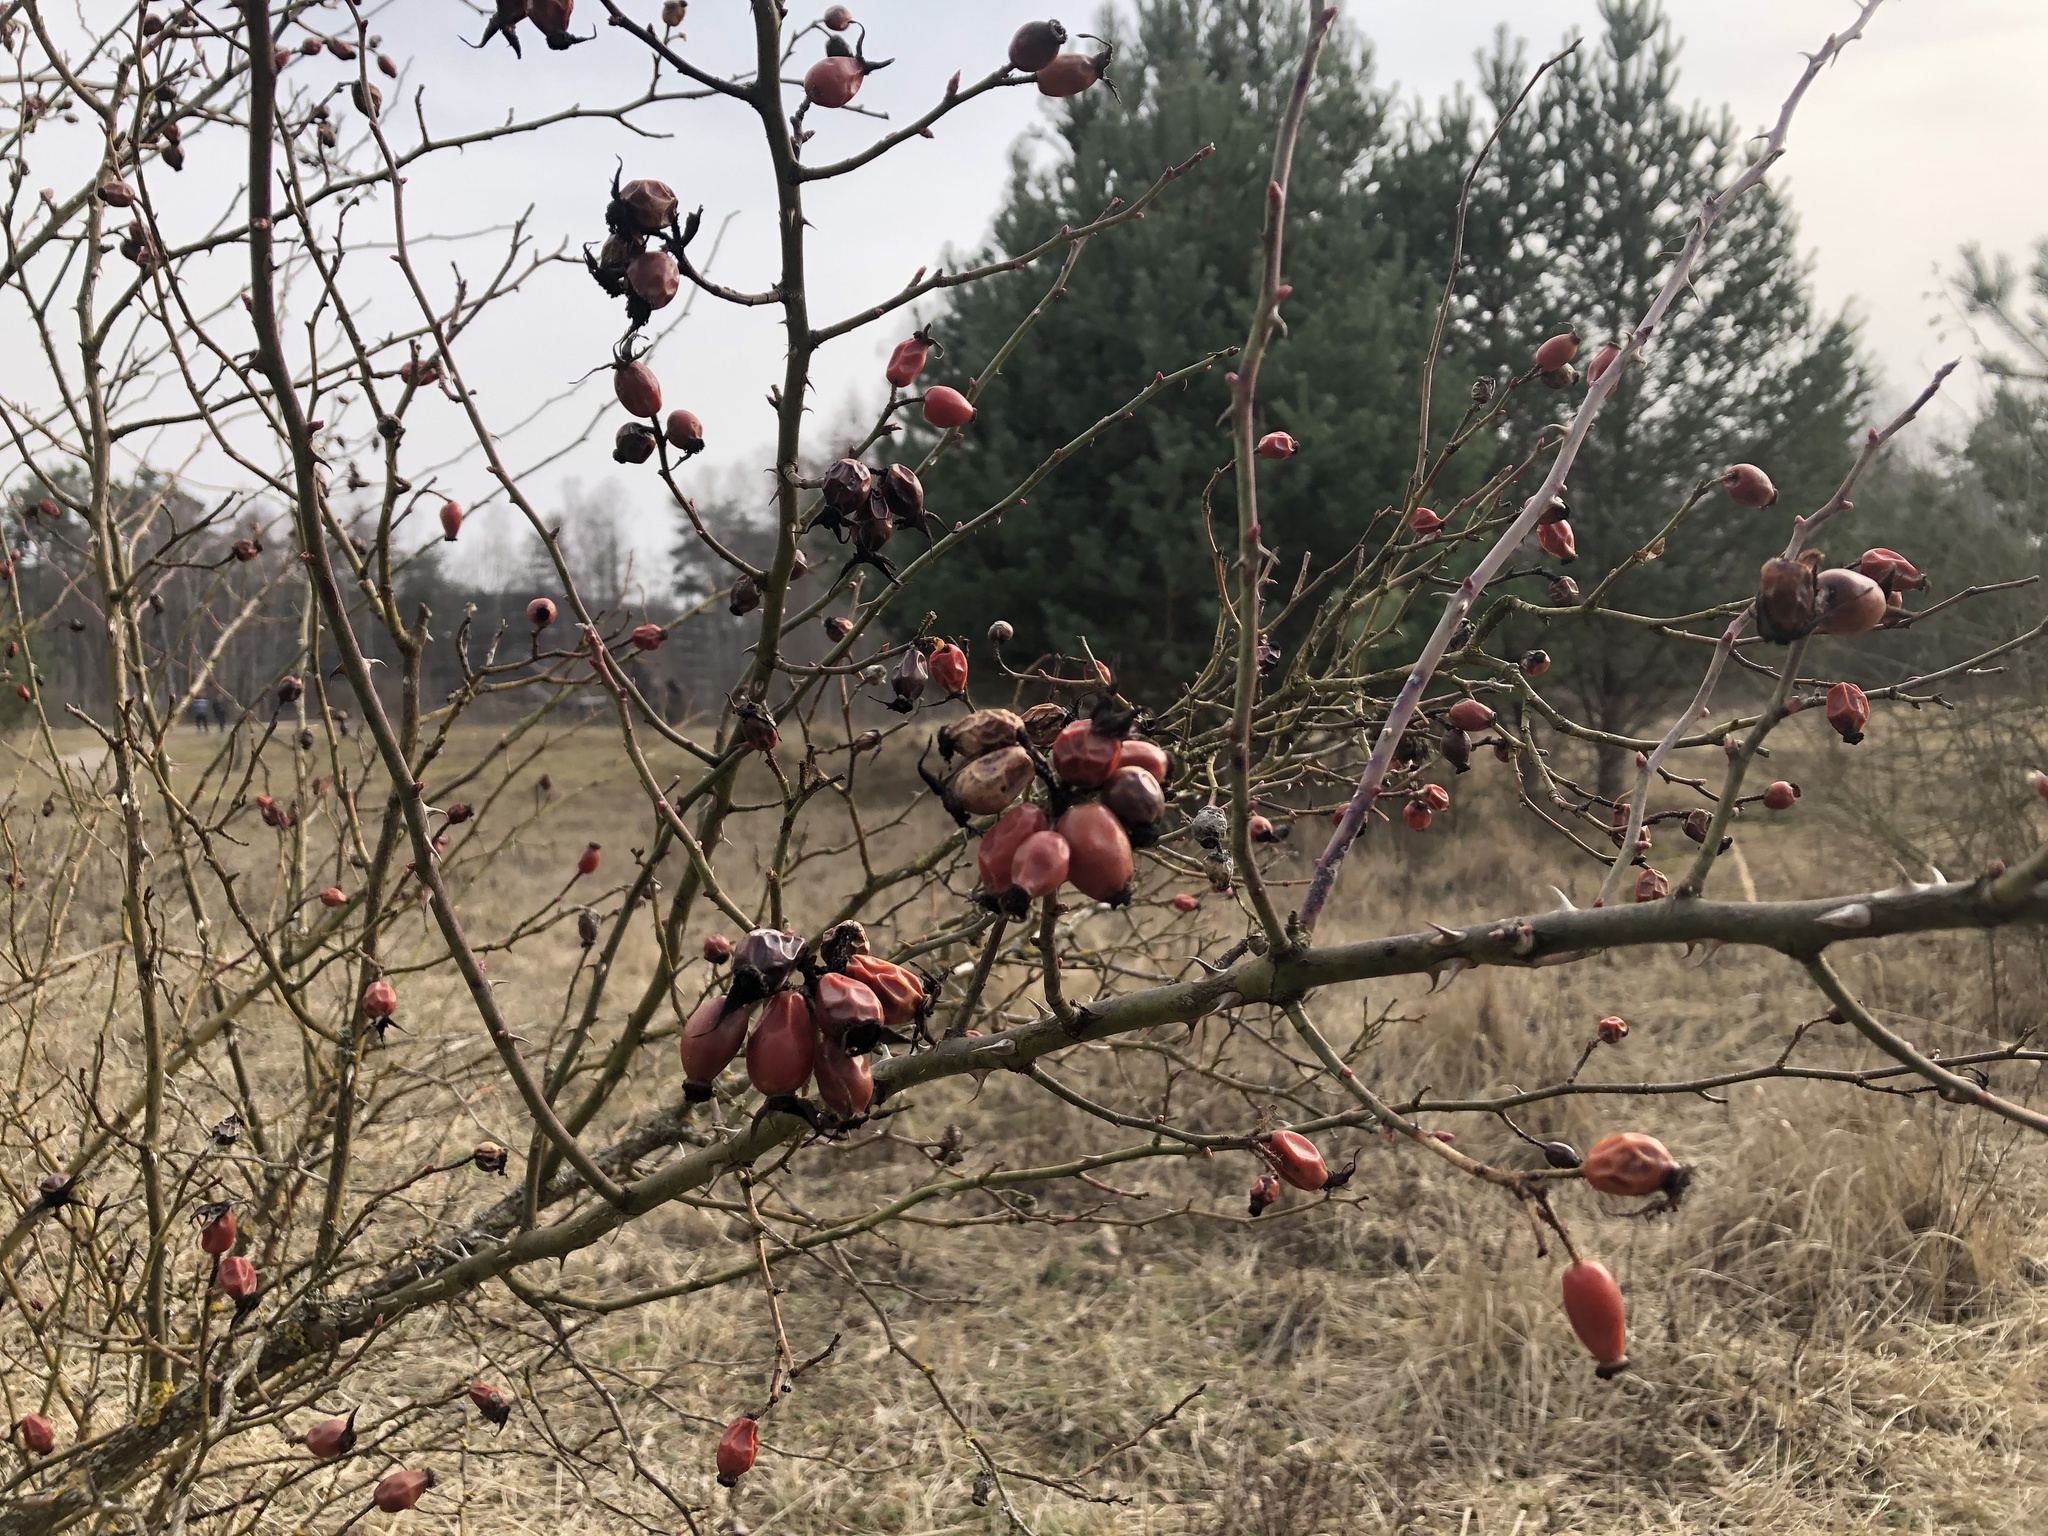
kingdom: Plantae
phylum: Tracheophyta
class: Magnoliopsida
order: Rosales
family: Rosaceae
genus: Rosa
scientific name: Rosa canina
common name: Dog rose
